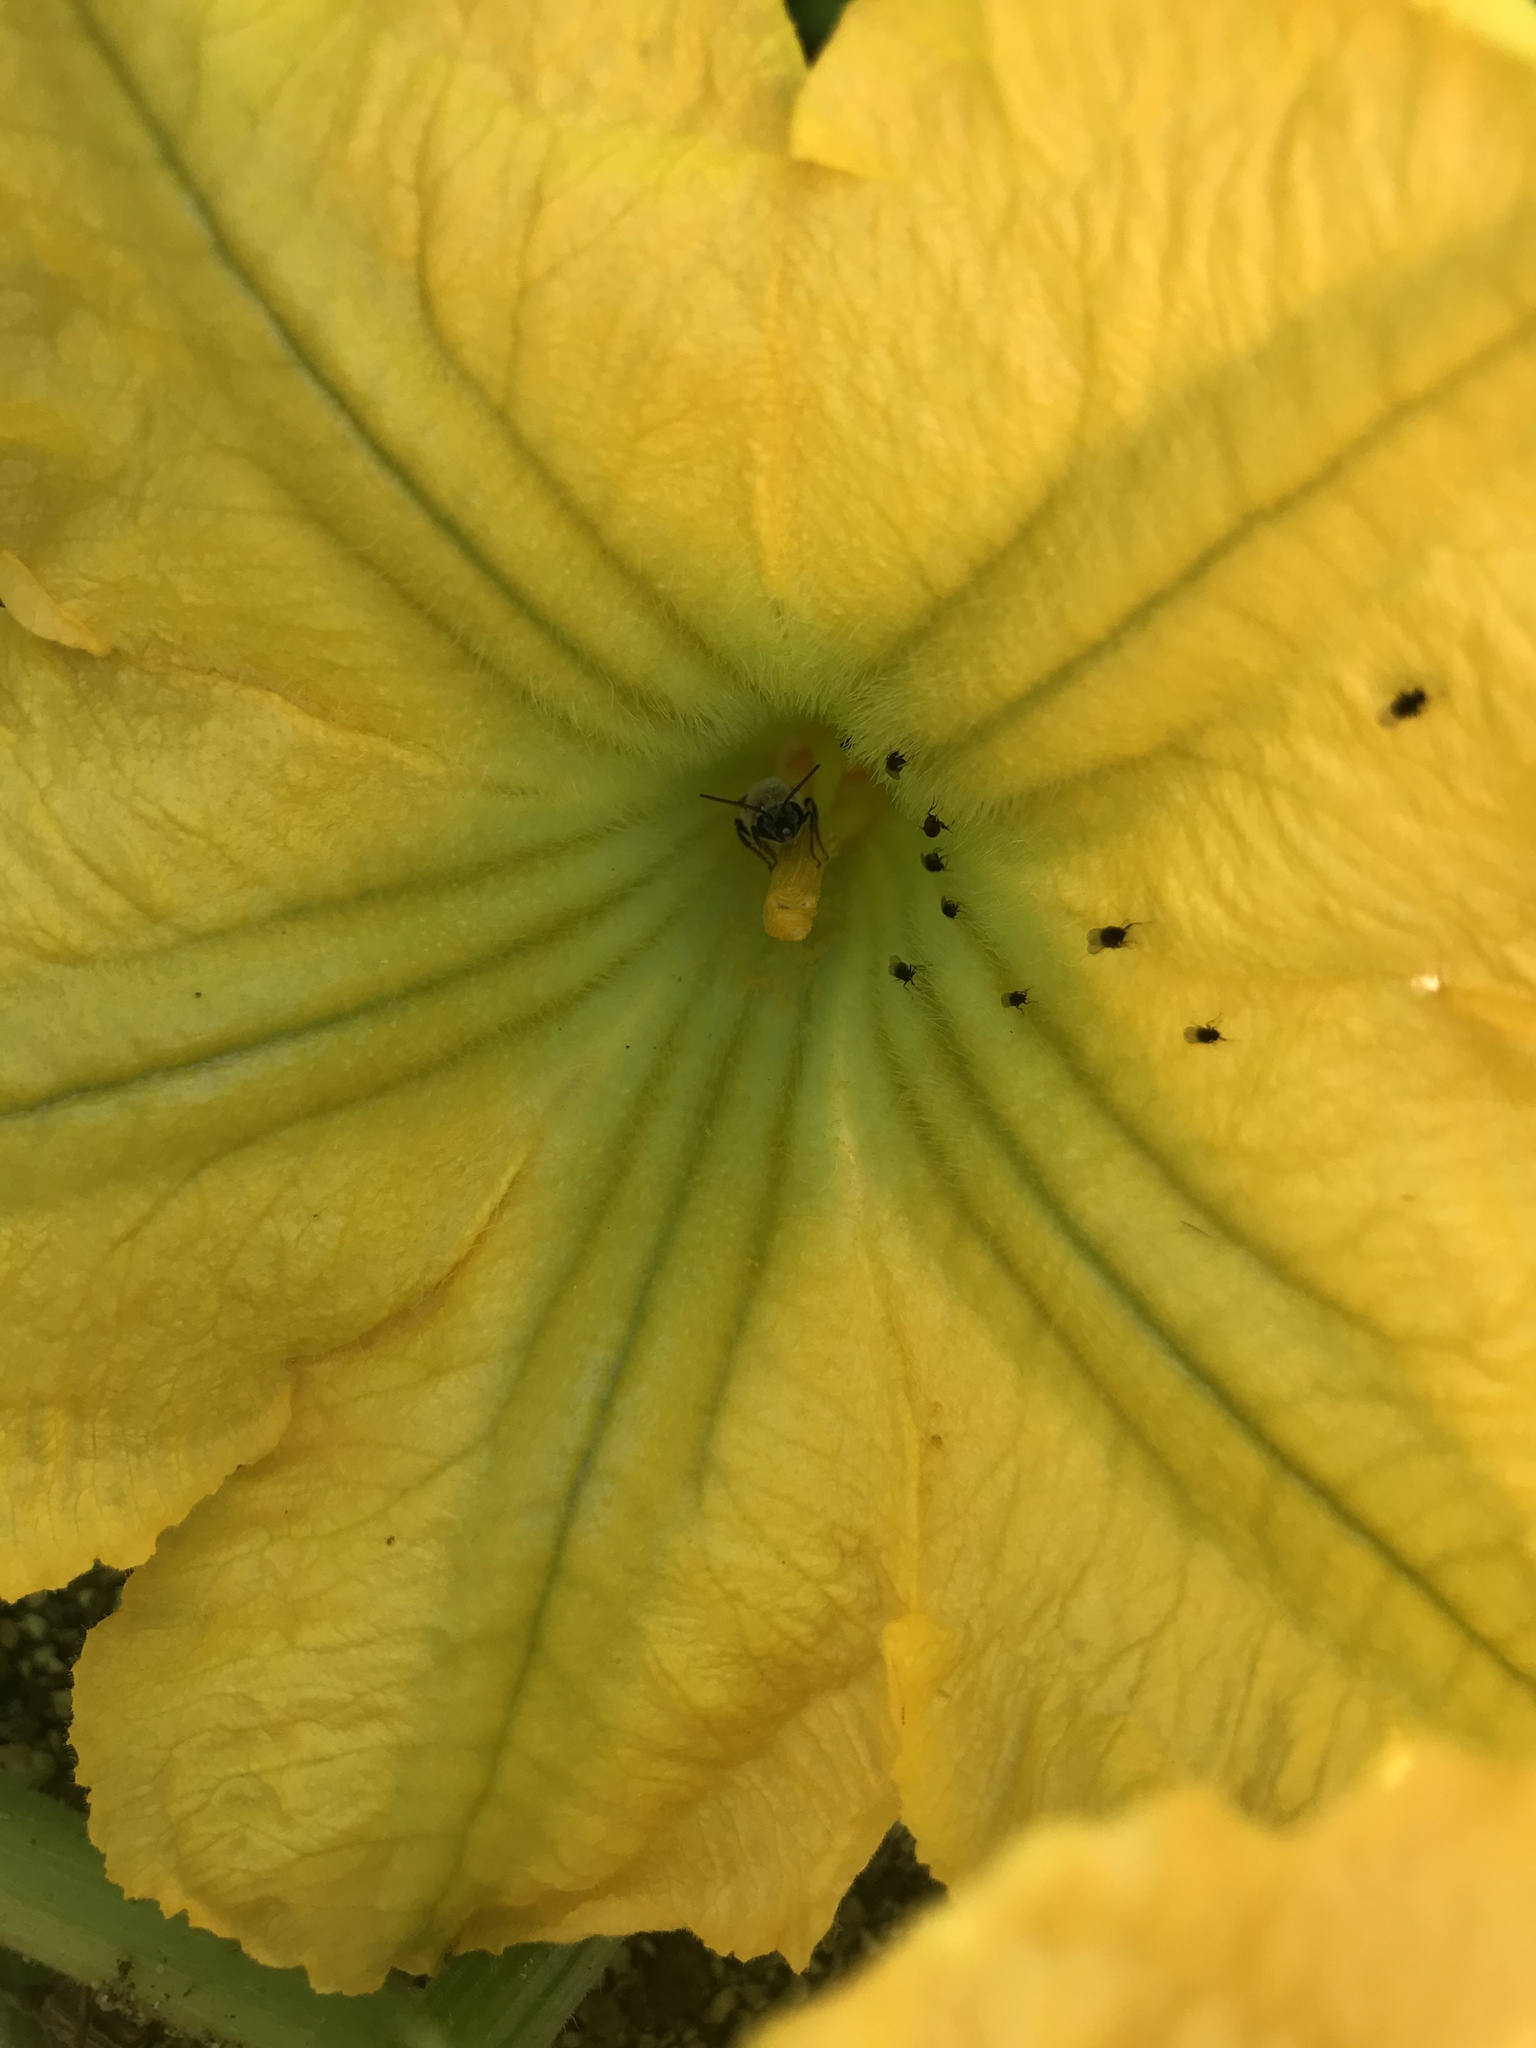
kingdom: Animalia
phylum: Arthropoda
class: Insecta
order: Hymenoptera
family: Apidae
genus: Peponapis
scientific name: Peponapis pruinosa
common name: Pruinose squash bee
